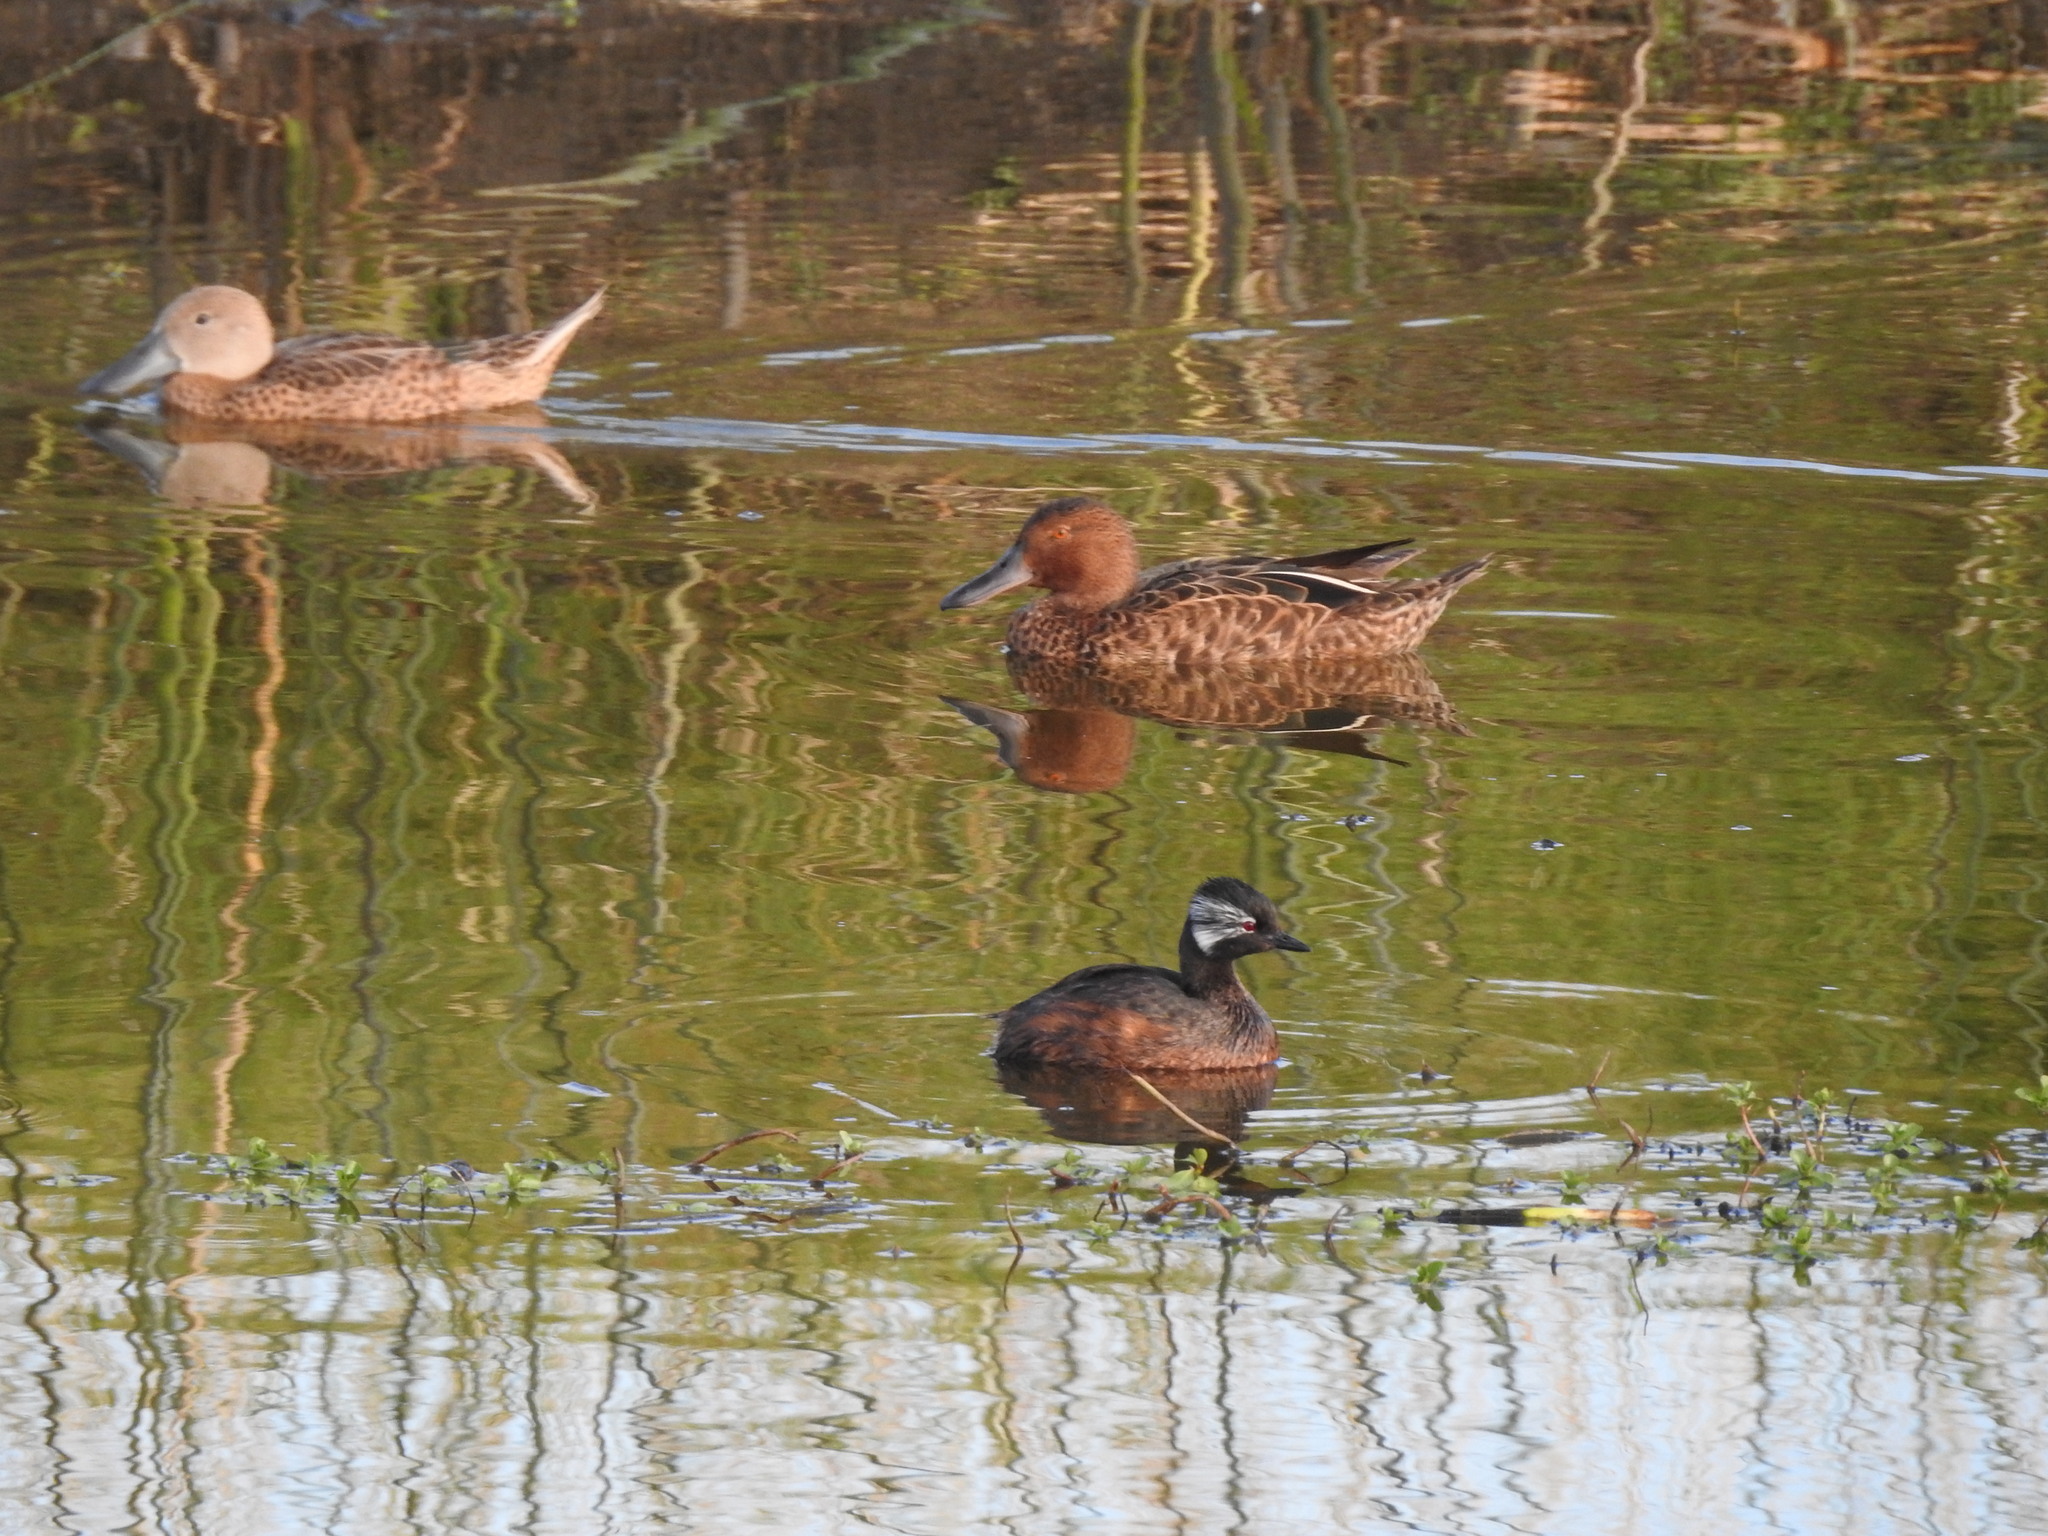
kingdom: Animalia
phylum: Chordata
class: Aves
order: Podicipediformes
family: Podicipedidae
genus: Rollandia
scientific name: Rollandia rolland
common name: White-tufted grebe
